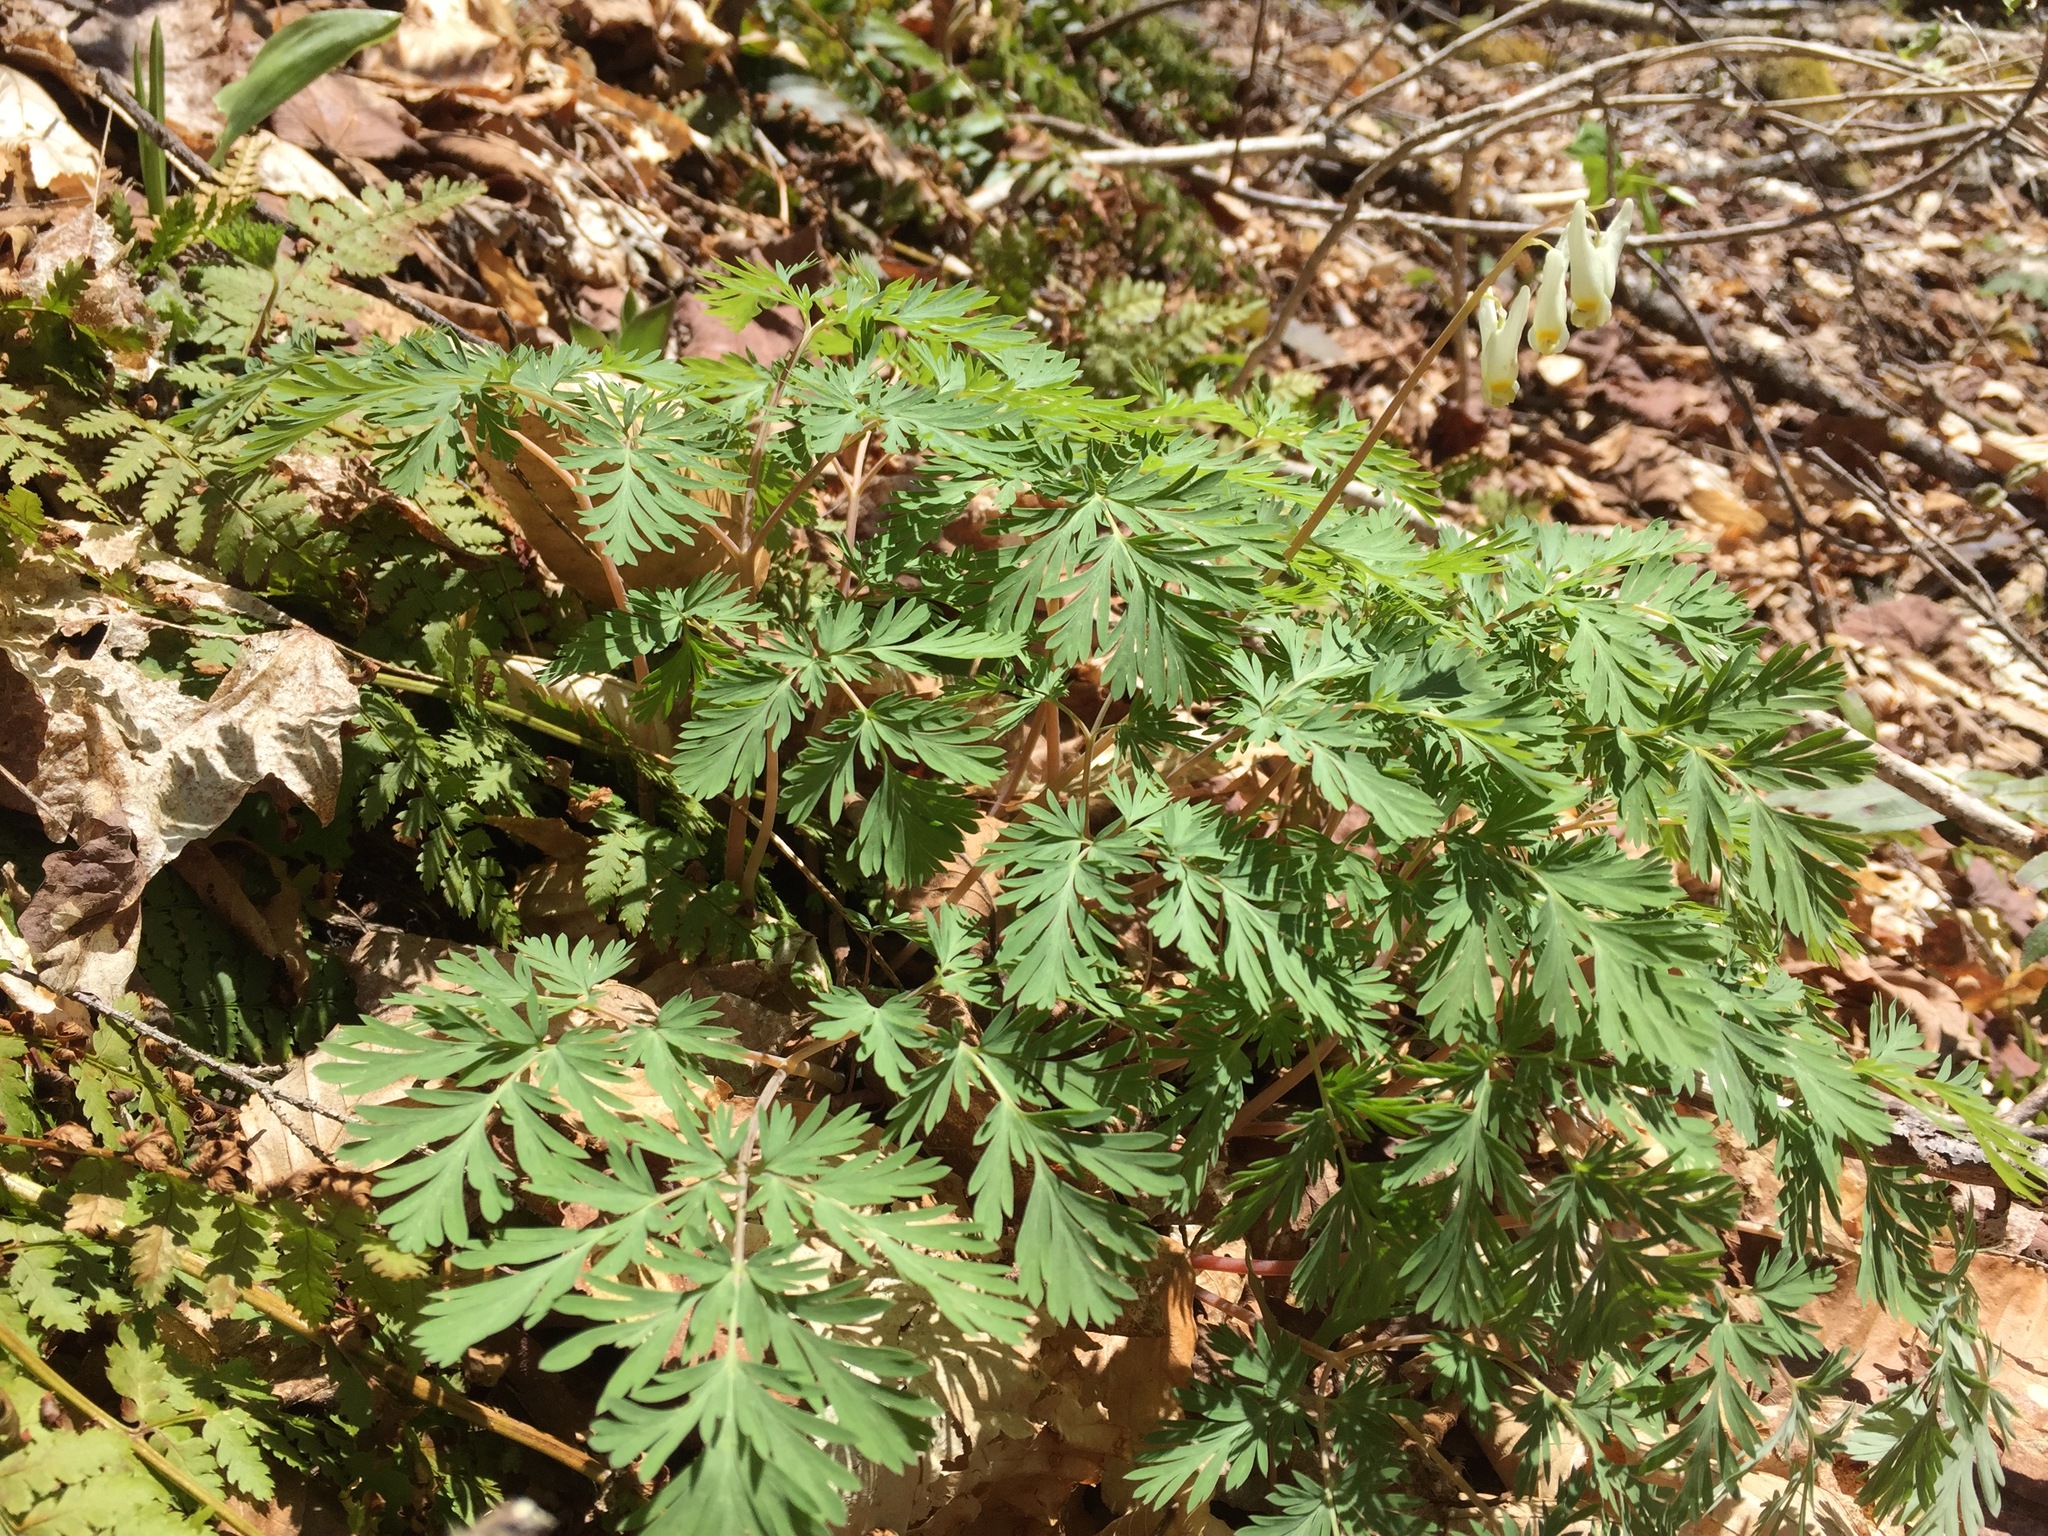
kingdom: Plantae
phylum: Tracheophyta
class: Magnoliopsida
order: Ranunculales
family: Papaveraceae
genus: Dicentra
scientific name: Dicentra cucullaria
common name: Dutchman's breeches
